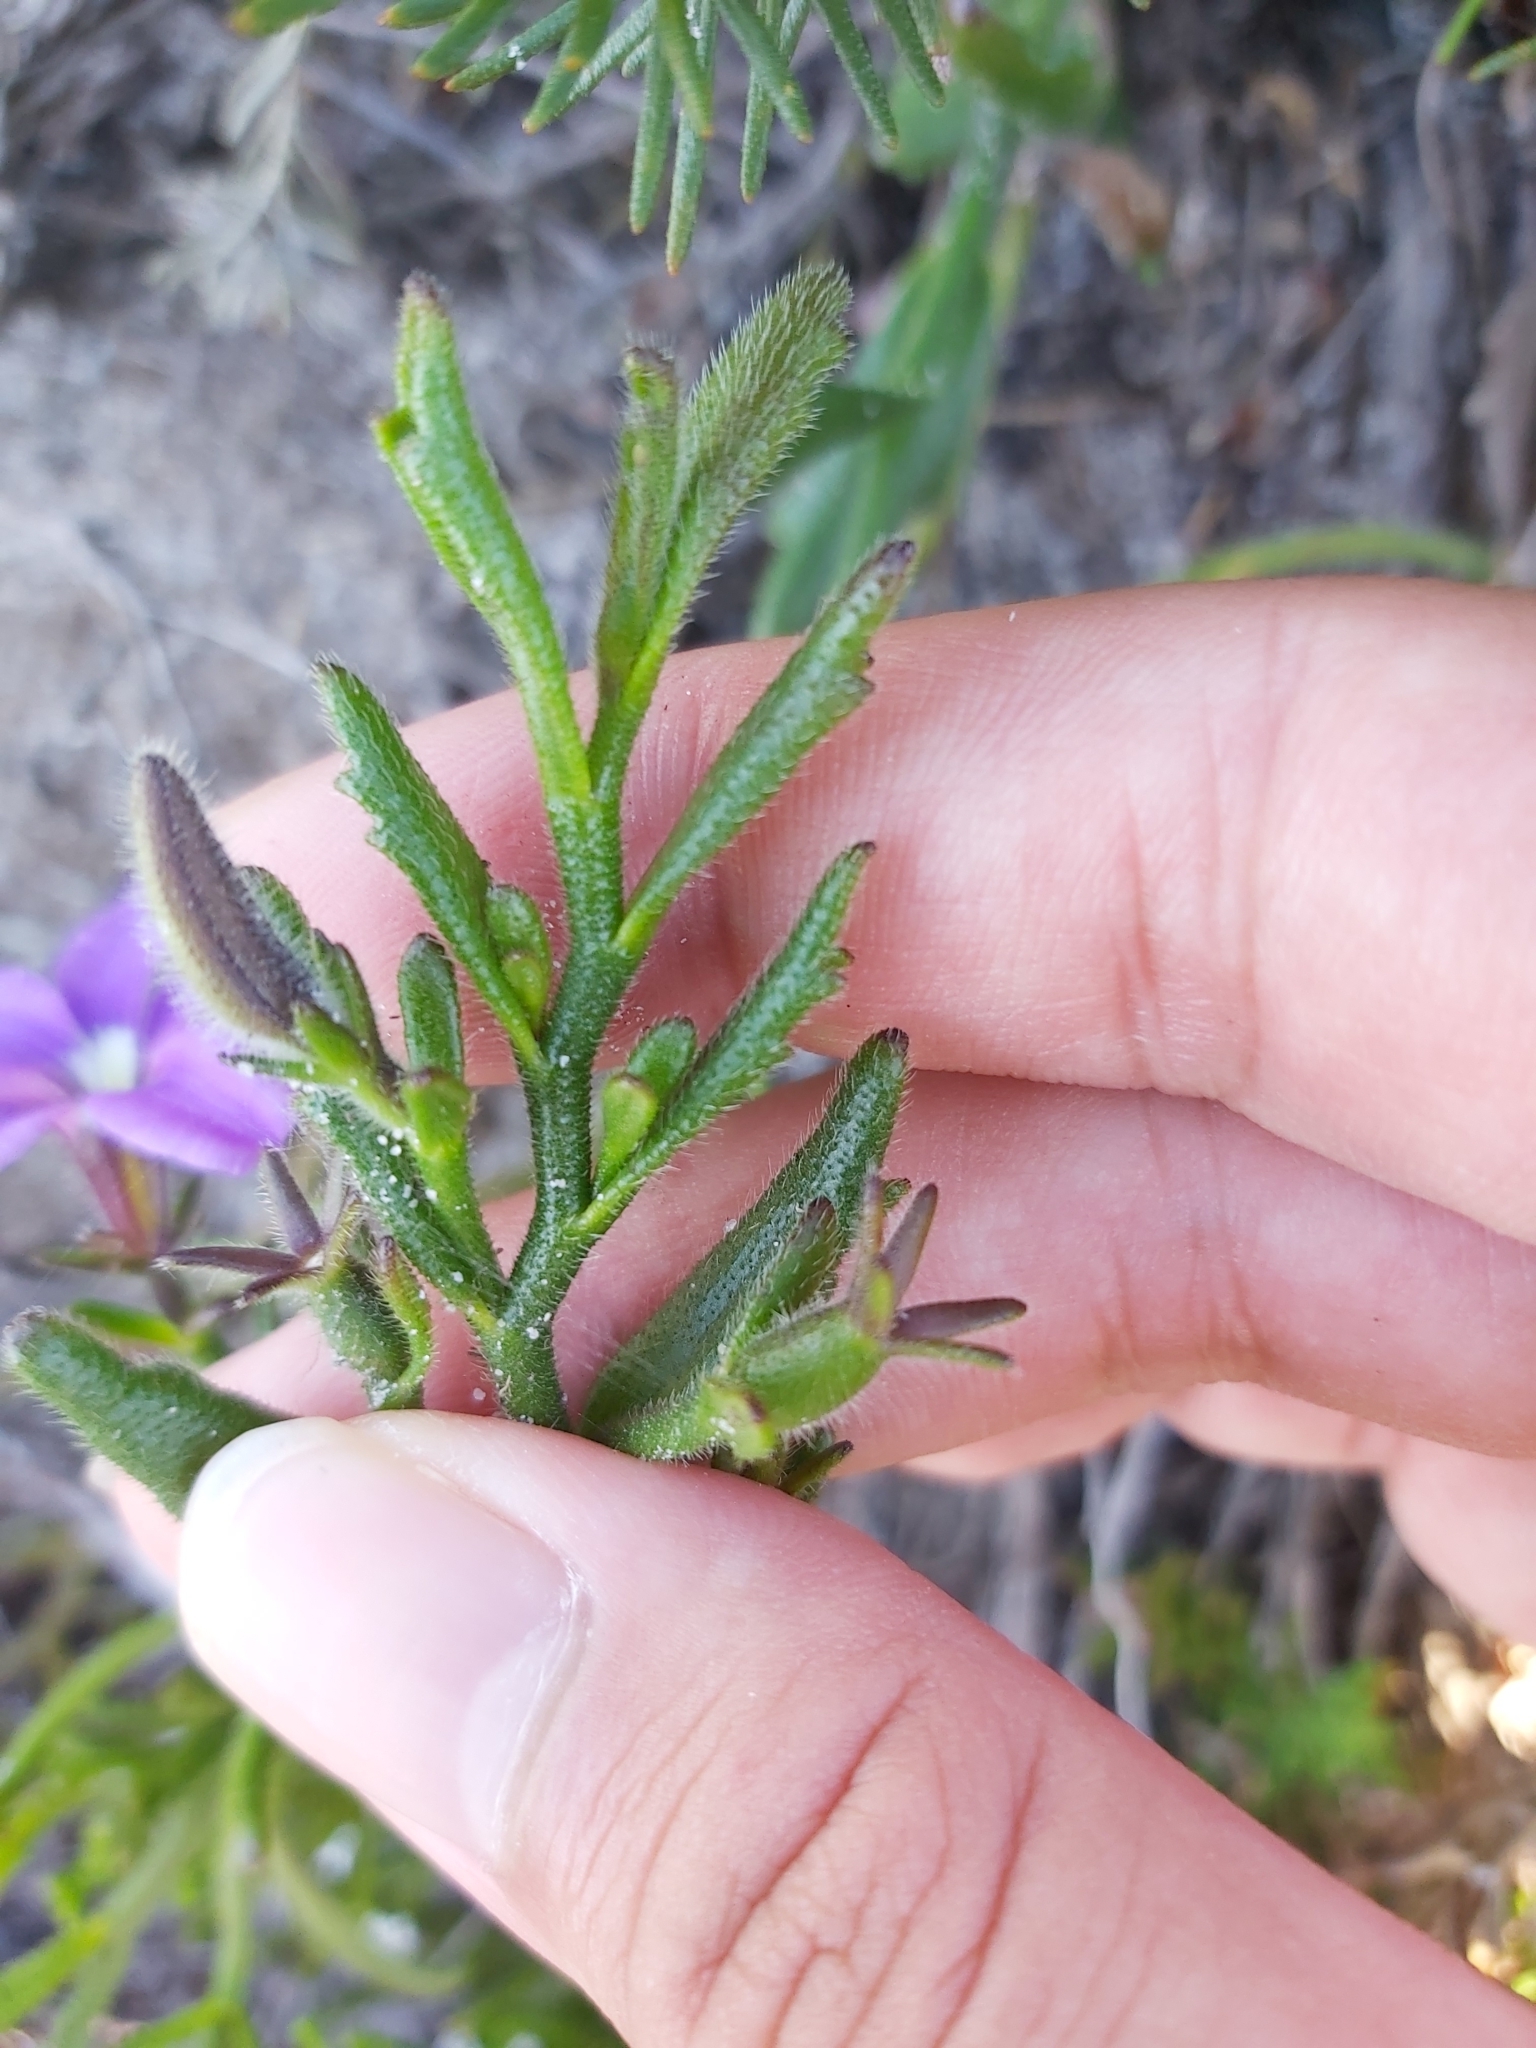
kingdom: Plantae
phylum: Tracheophyta
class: Magnoliopsida
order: Asterales
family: Goodeniaceae
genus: Scaevola
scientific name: Scaevola ramosissima
